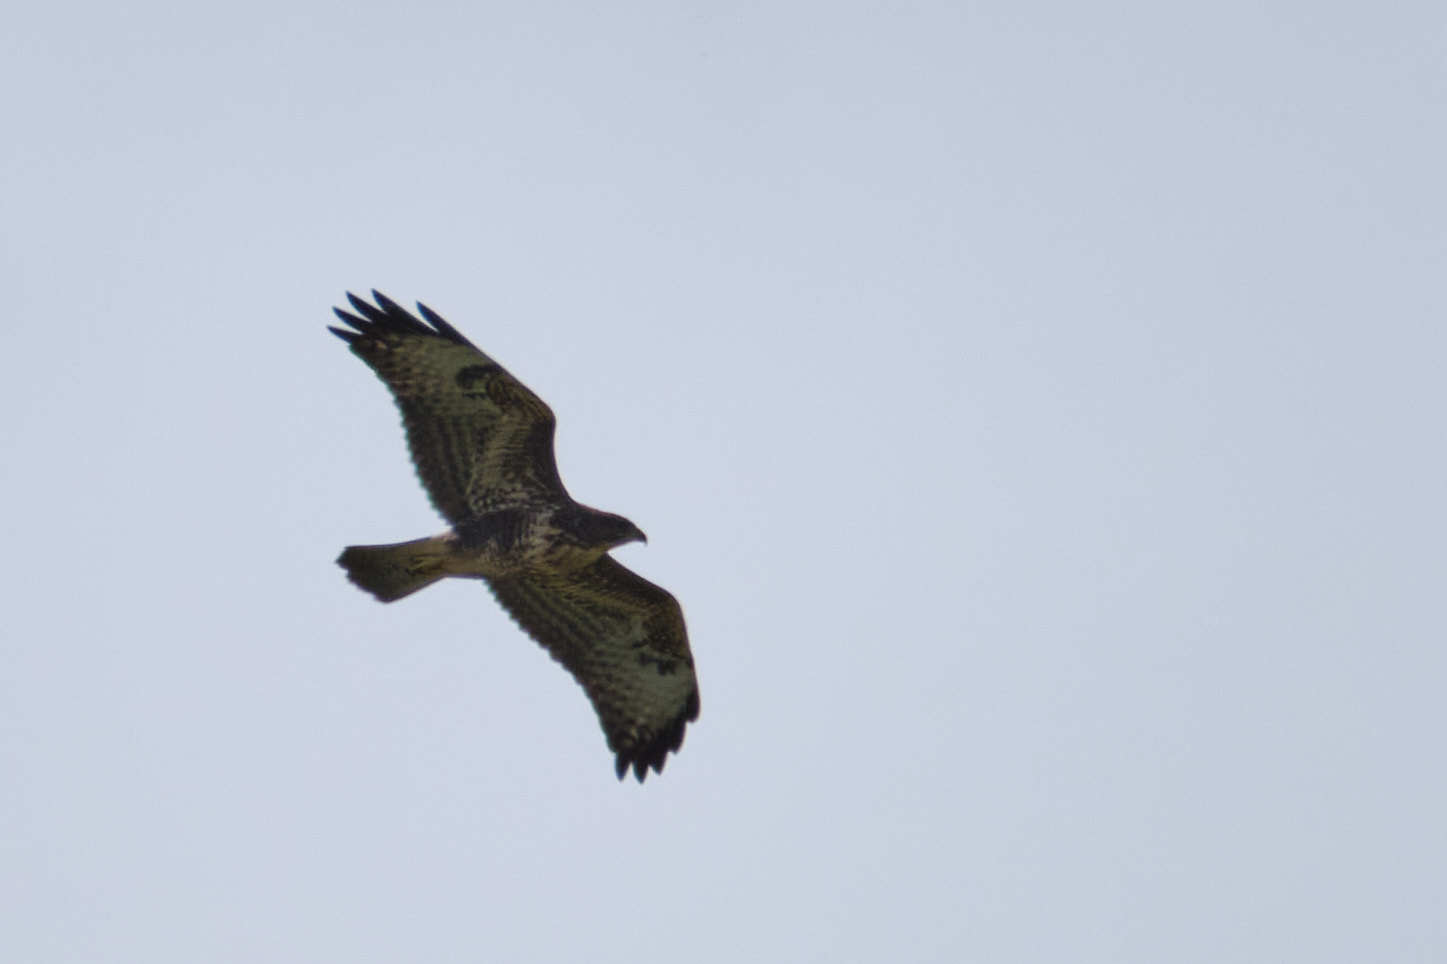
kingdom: Animalia
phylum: Chordata
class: Aves
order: Accipitriformes
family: Accipitridae
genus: Buteo
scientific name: Buteo buteo
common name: Common buzzard
